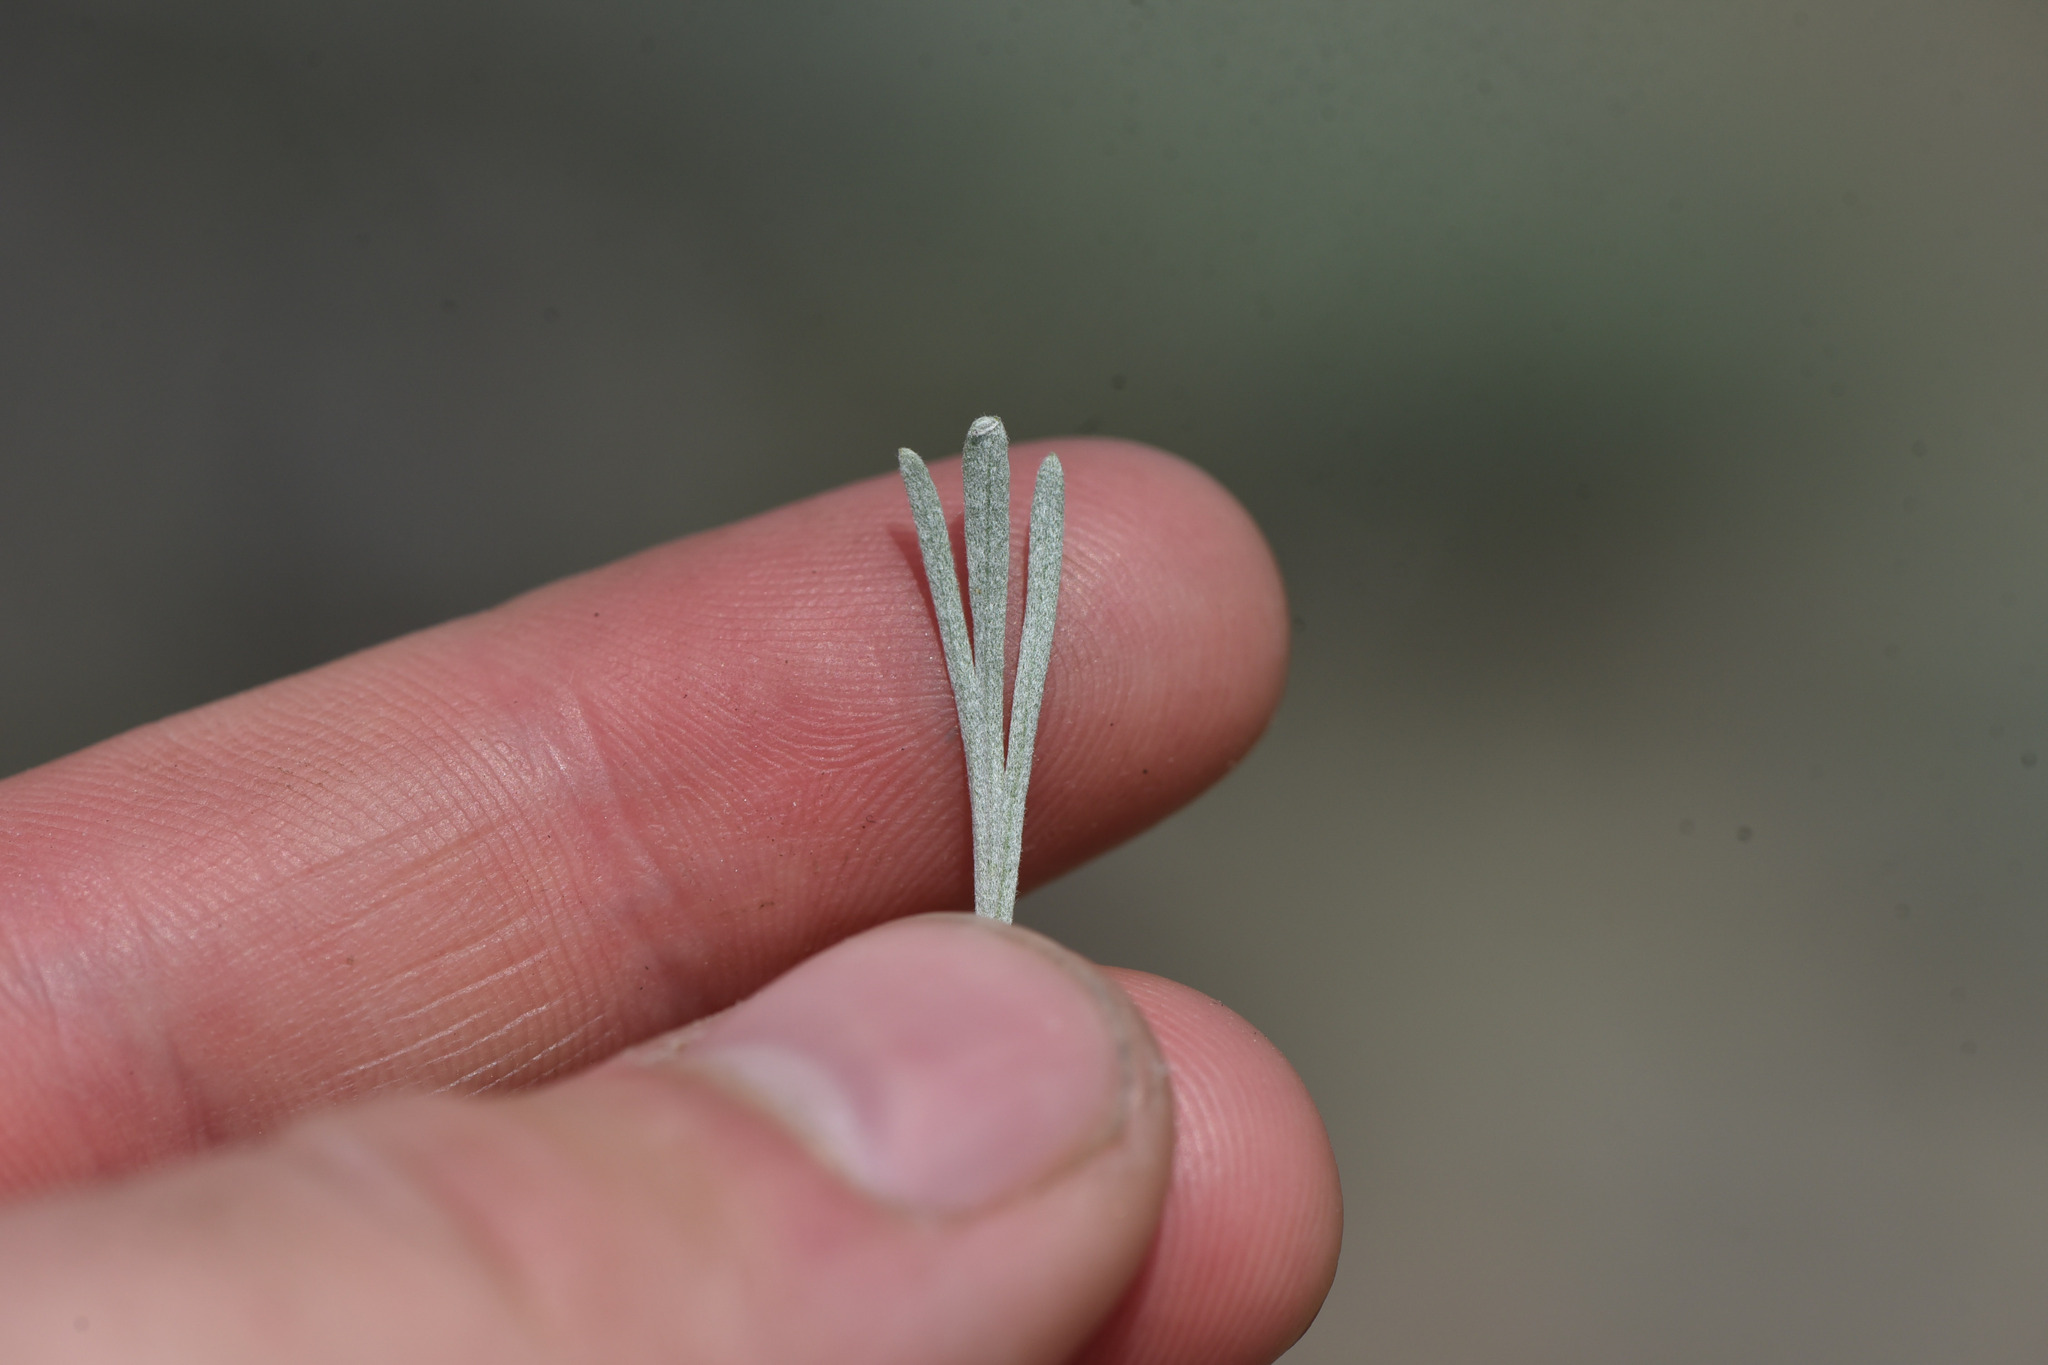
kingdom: Plantae
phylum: Tracheophyta
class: Magnoliopsida
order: Asterales
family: Asteraceae
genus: Artemisia
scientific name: Artemisia tripartita
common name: Three-tip sagebrush
